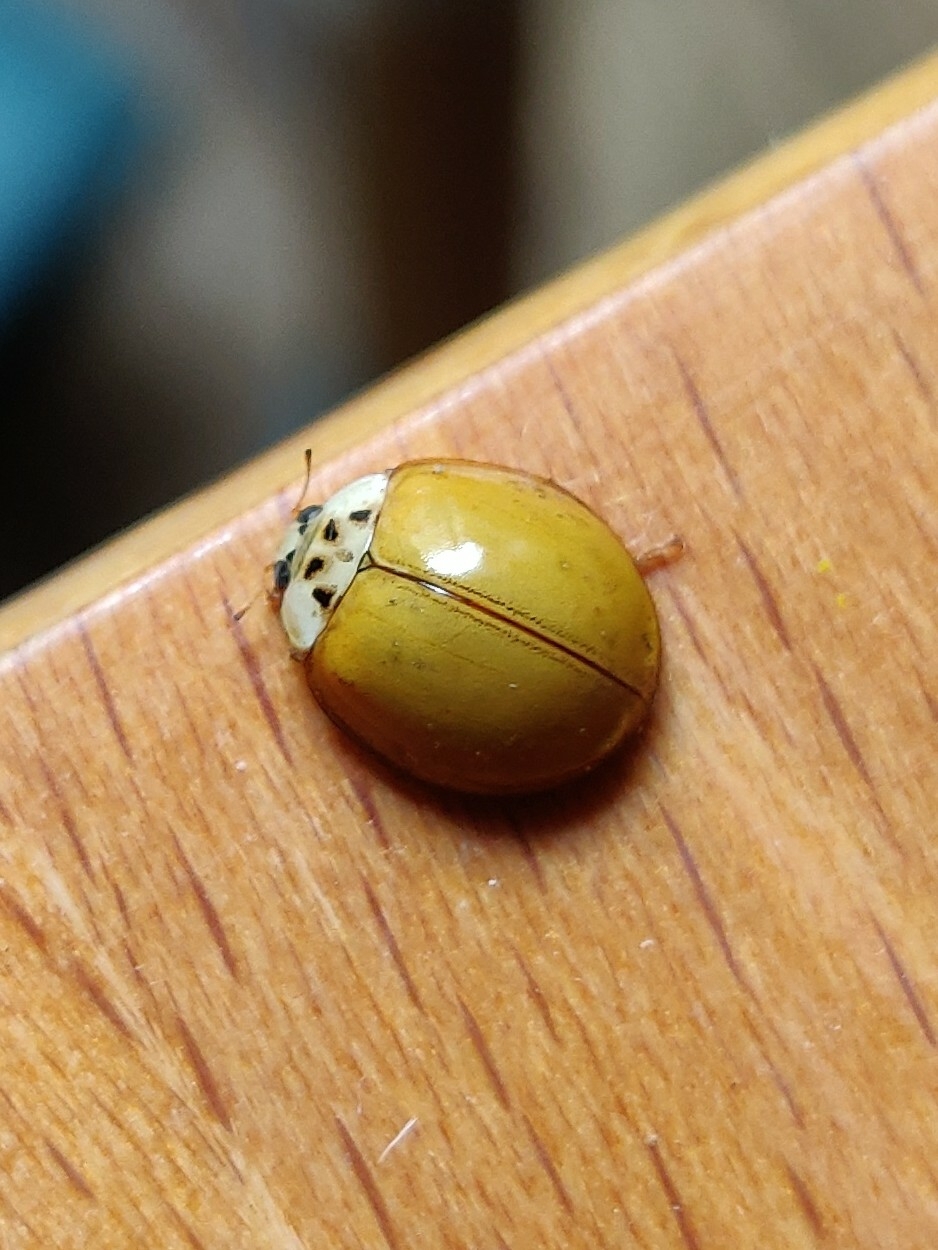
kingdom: Animalia
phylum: Arthropoda
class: Insecta
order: Coleoptera
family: Coccinellidae
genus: Harmonia
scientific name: Harmonia axyridis
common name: Harlequin ladybird
